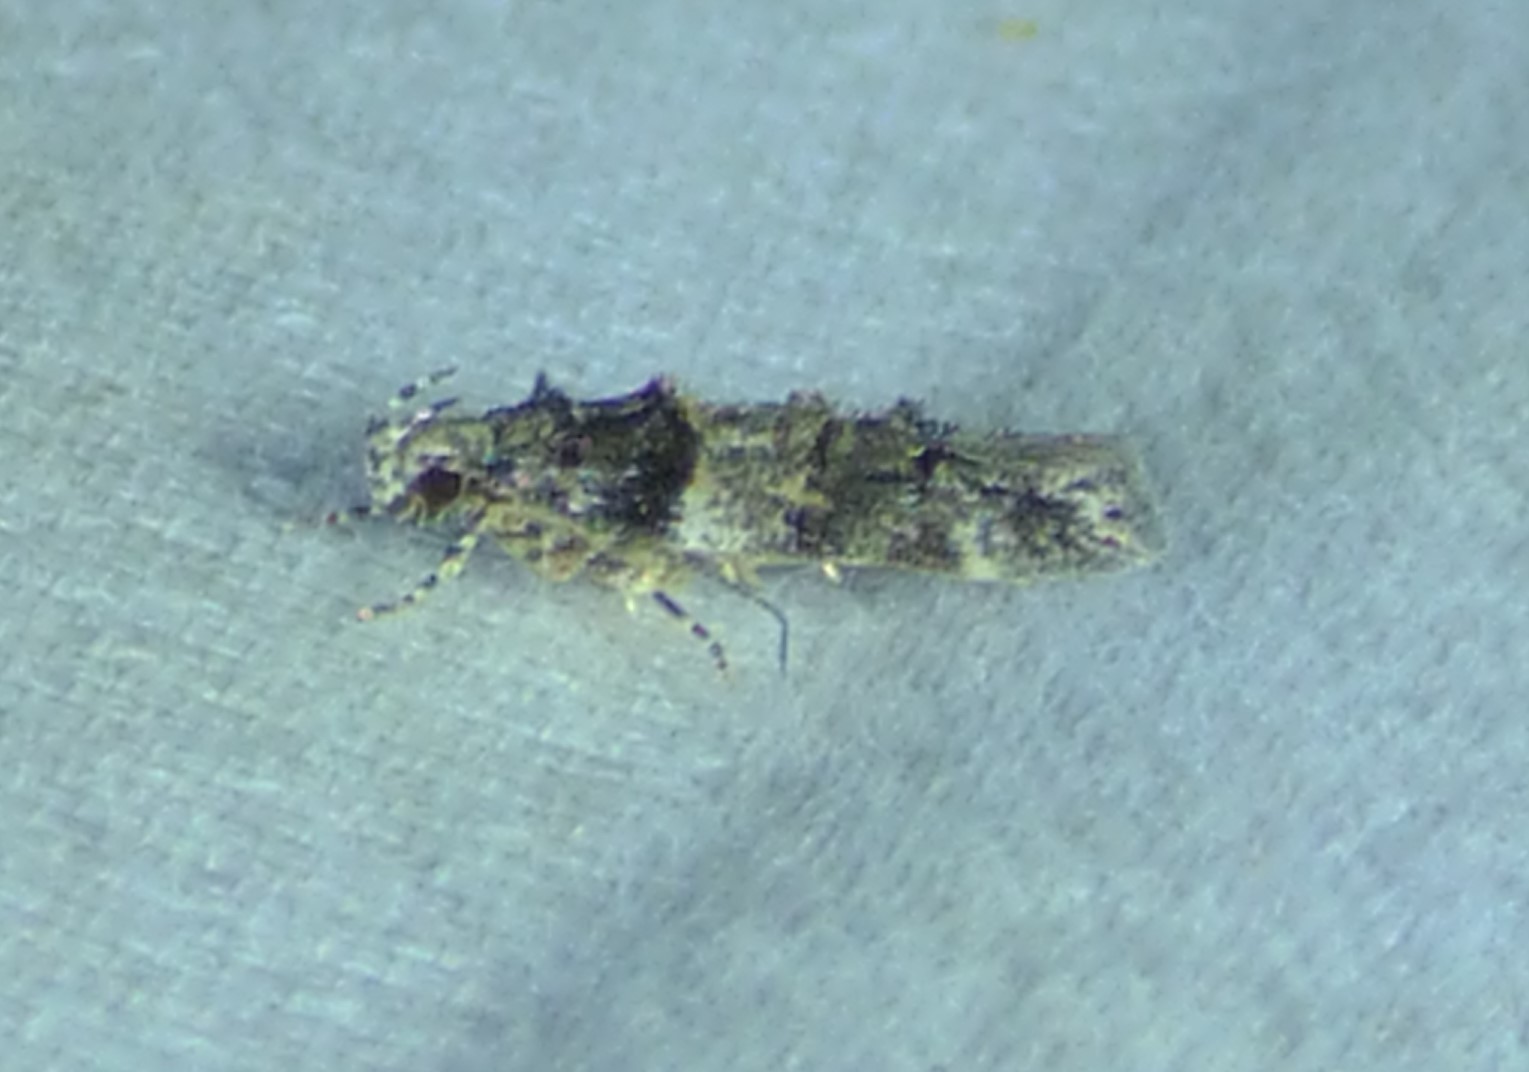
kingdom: Animalia
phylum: Arthropoda
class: Insecta
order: Lepidoptera
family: Gelechiidae
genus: Pubitelphusa
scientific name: Pubitelphusa latifasciella
